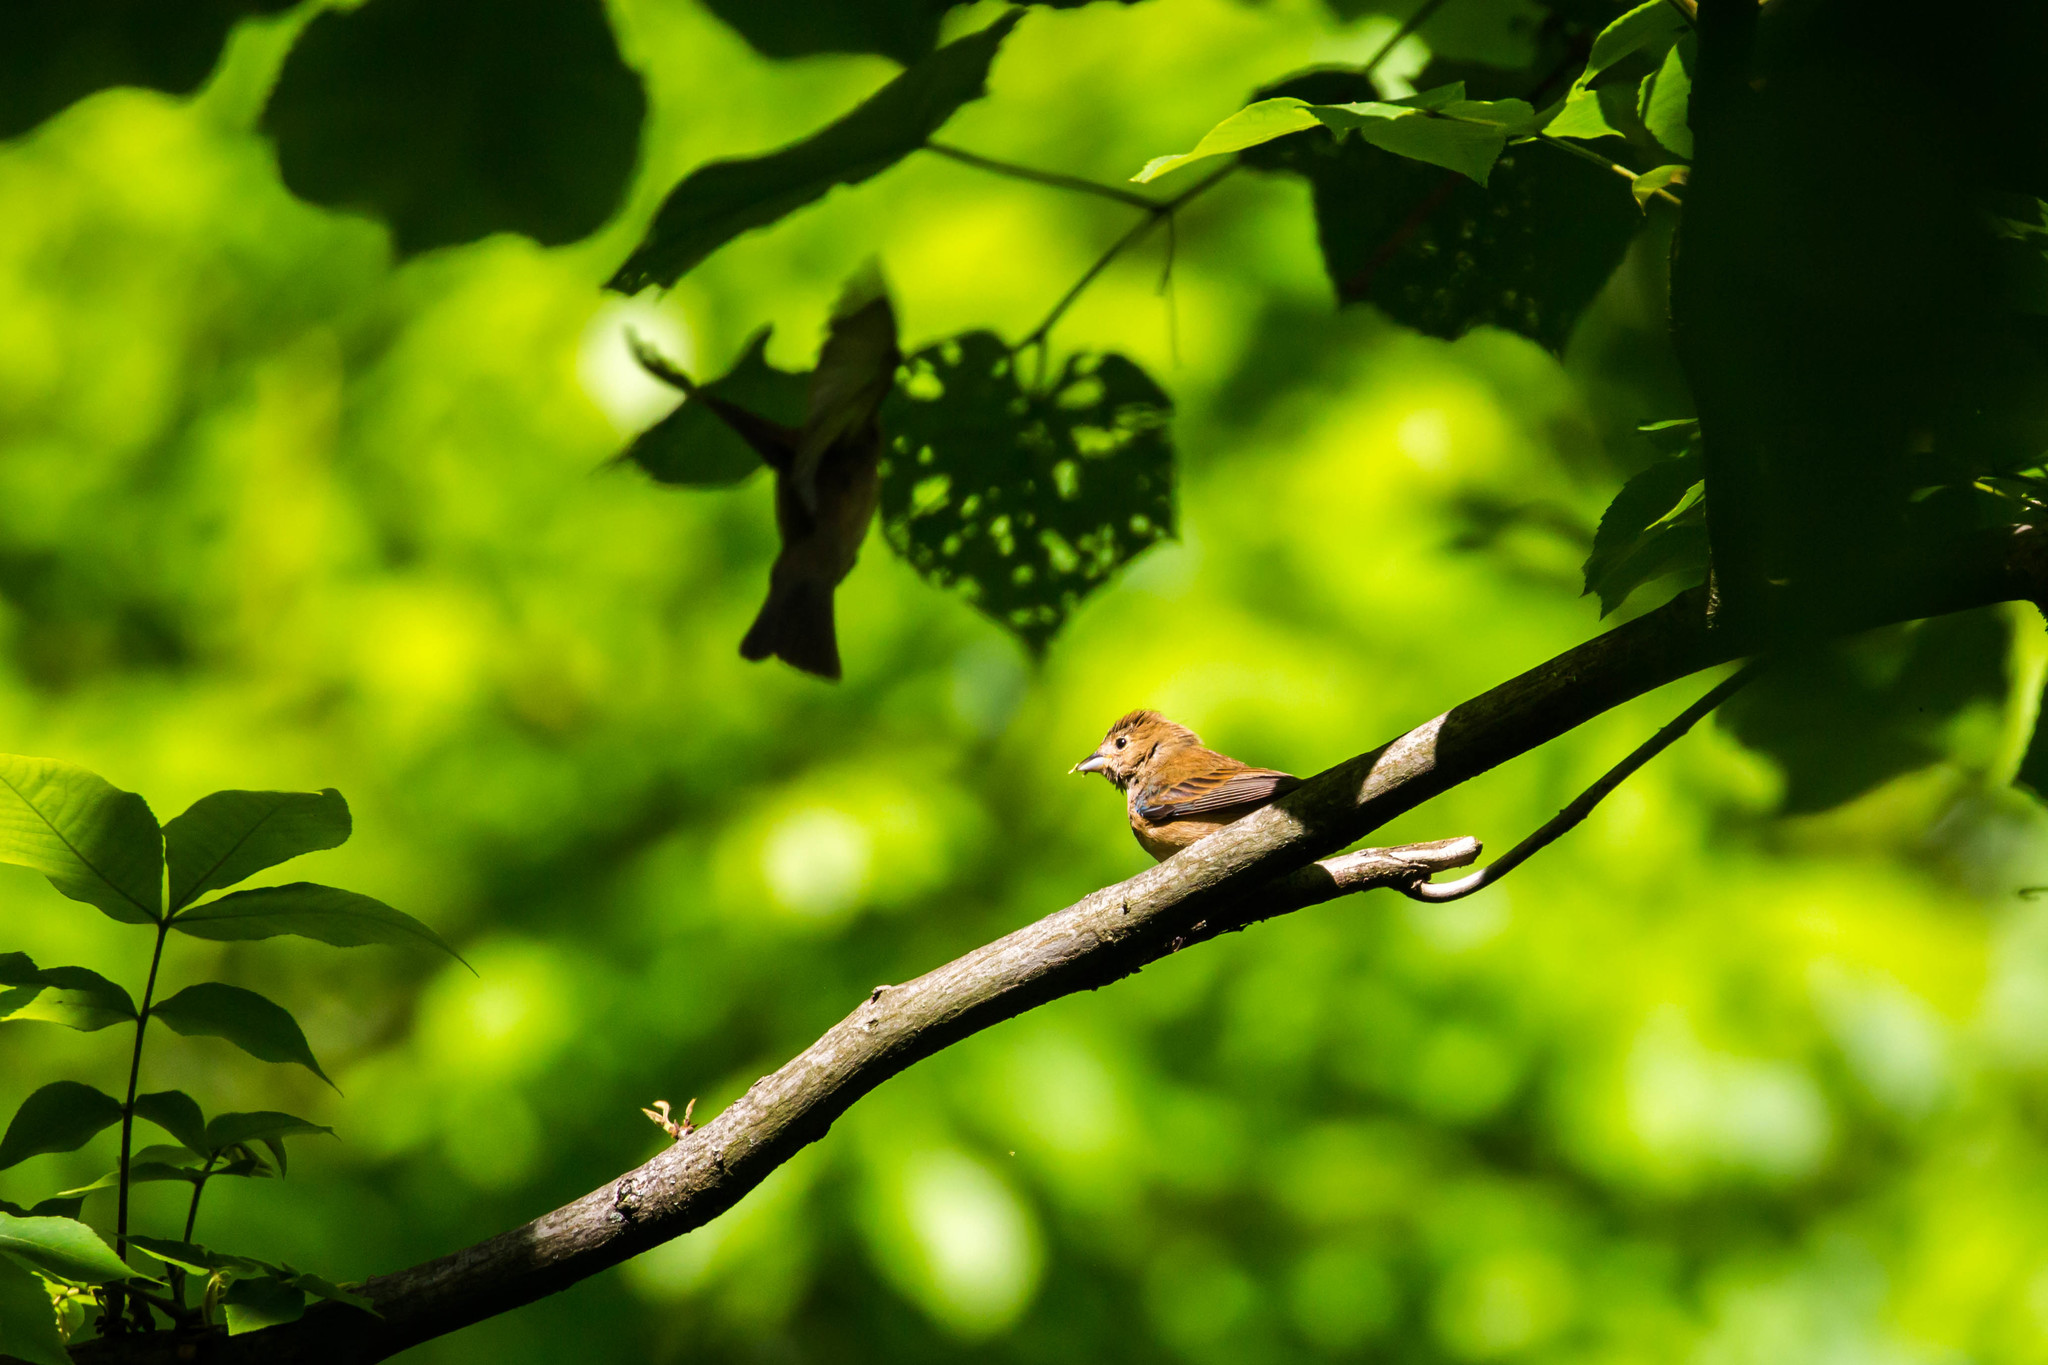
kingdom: Animalia
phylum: Chordata
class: Aves
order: Passeriformes
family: Cardinalidae
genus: Passerina
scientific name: Passerina cyanea
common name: Indigo bunting
